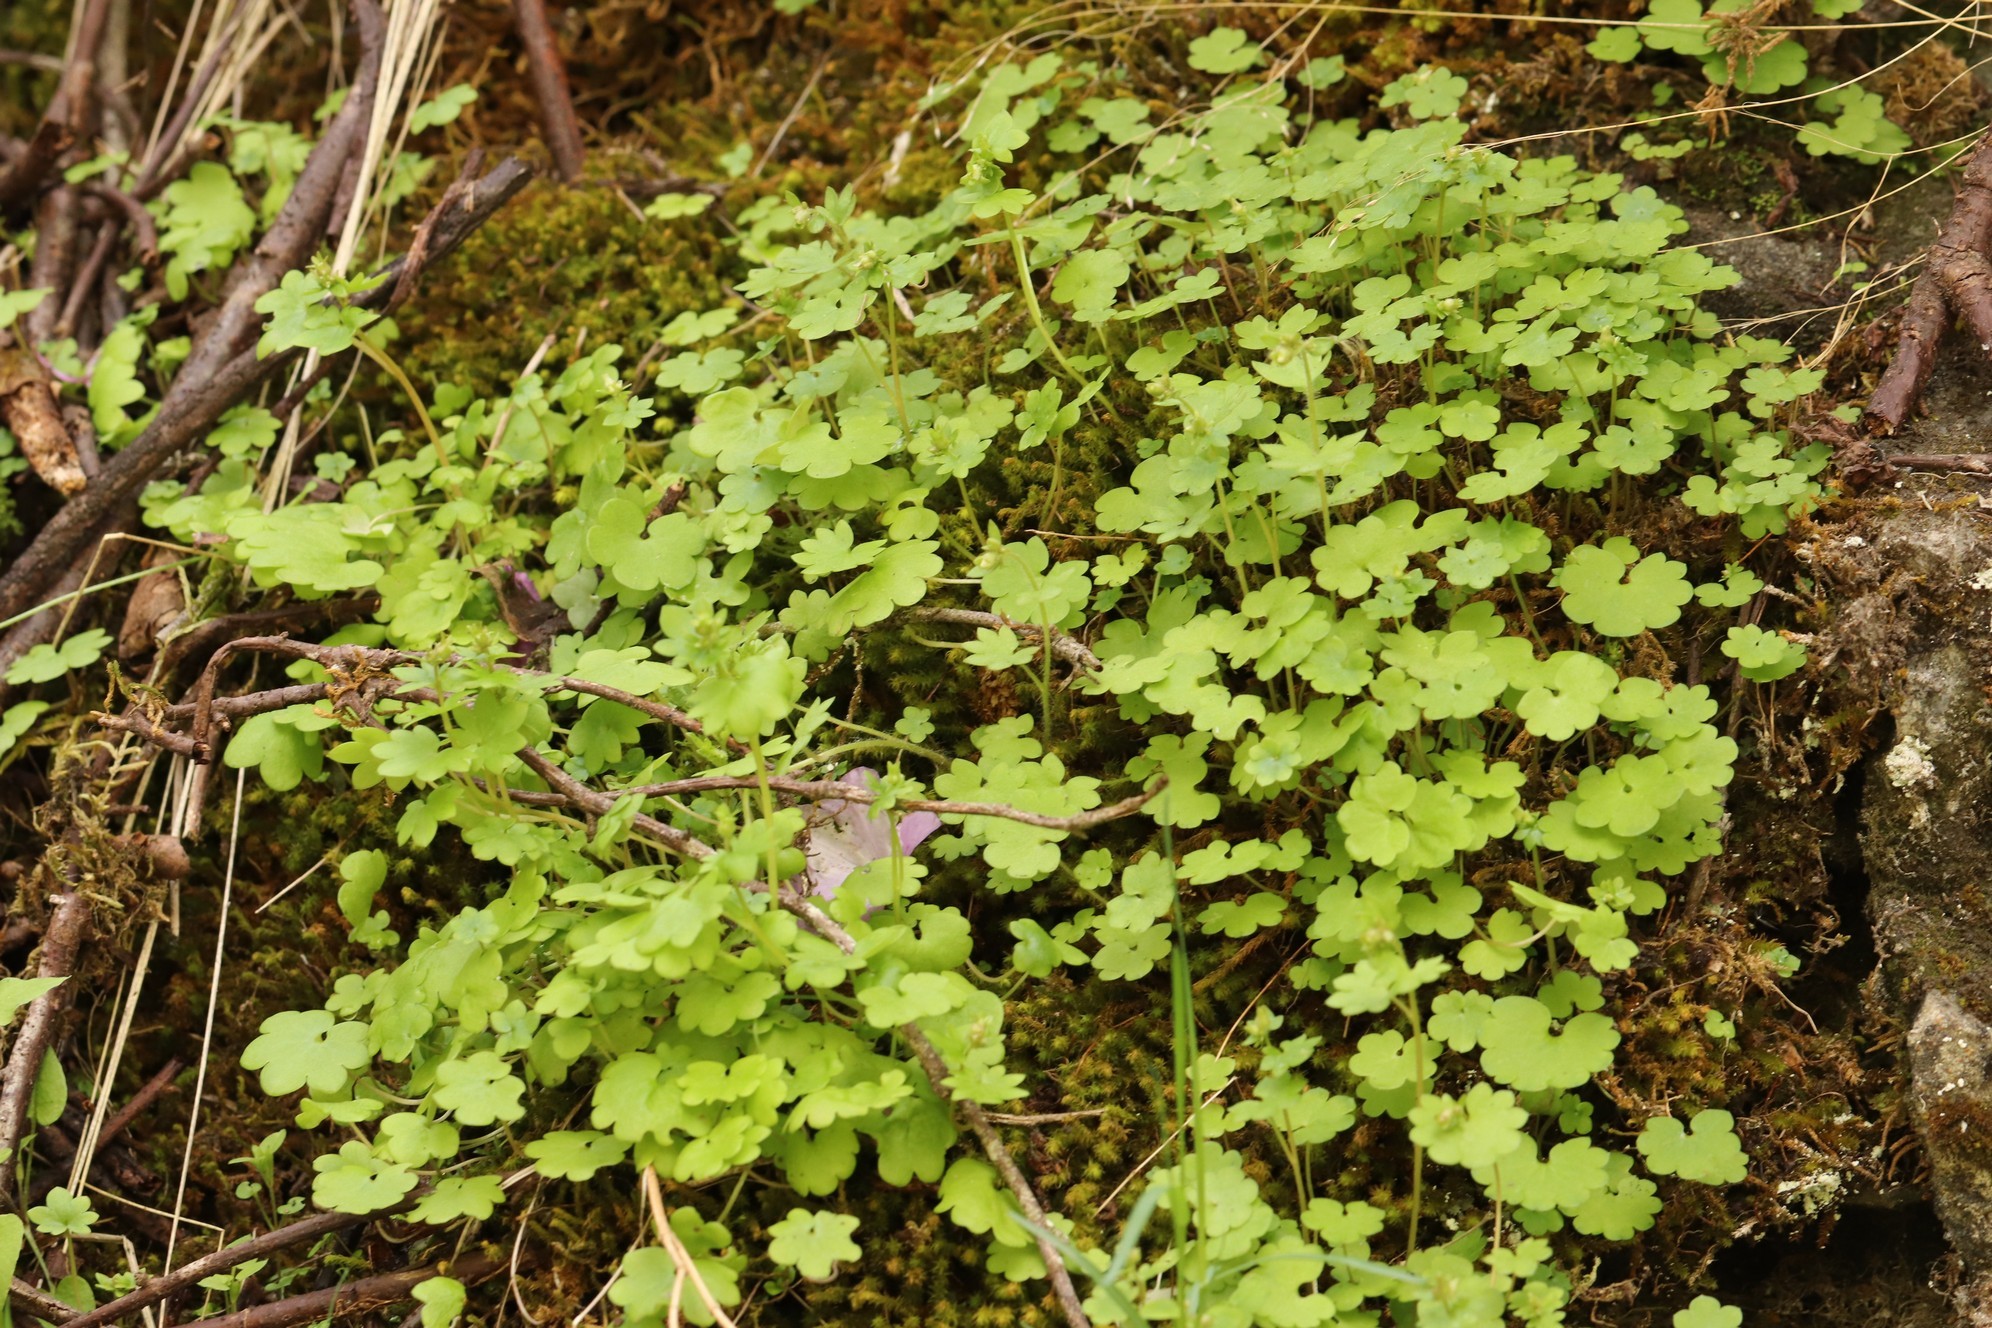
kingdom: Plantae
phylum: Tracheophyta
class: Magnoliopsida
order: Saxifragales
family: Saxifragaceae
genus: Saxifraga
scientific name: Saxifraga sibirica
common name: Siberian saxifrage
